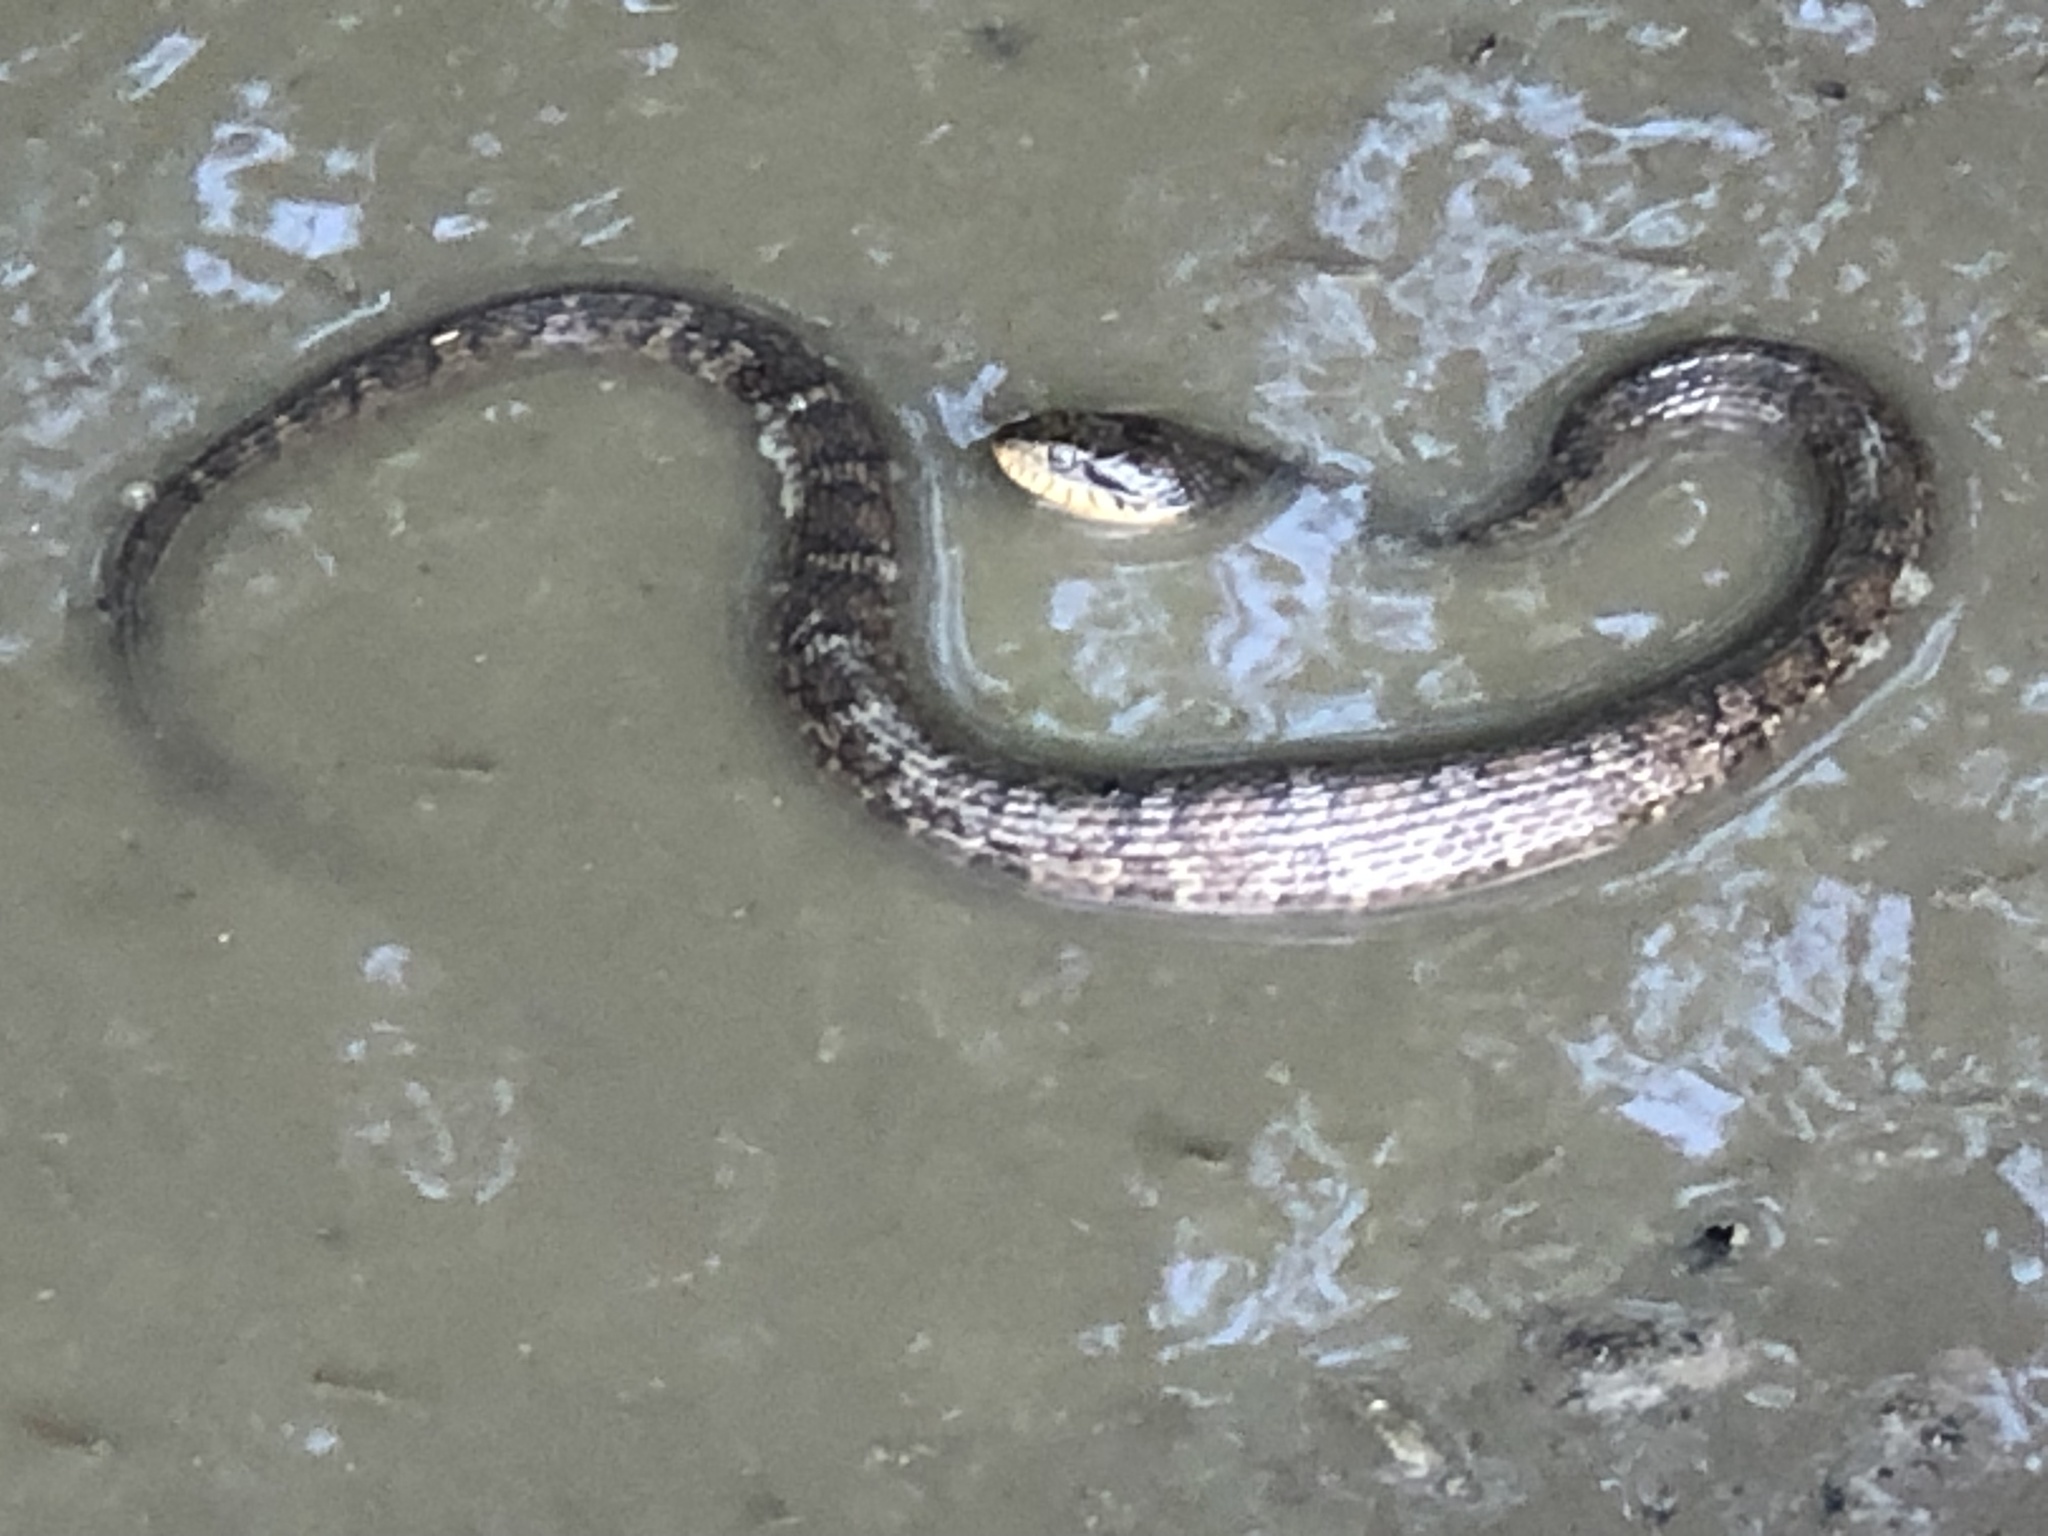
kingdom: Animalia
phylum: Chordata
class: Squamata
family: Colubridae
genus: Nerodia
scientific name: Nerodia erythrogaster
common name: Plainbelly water snake
